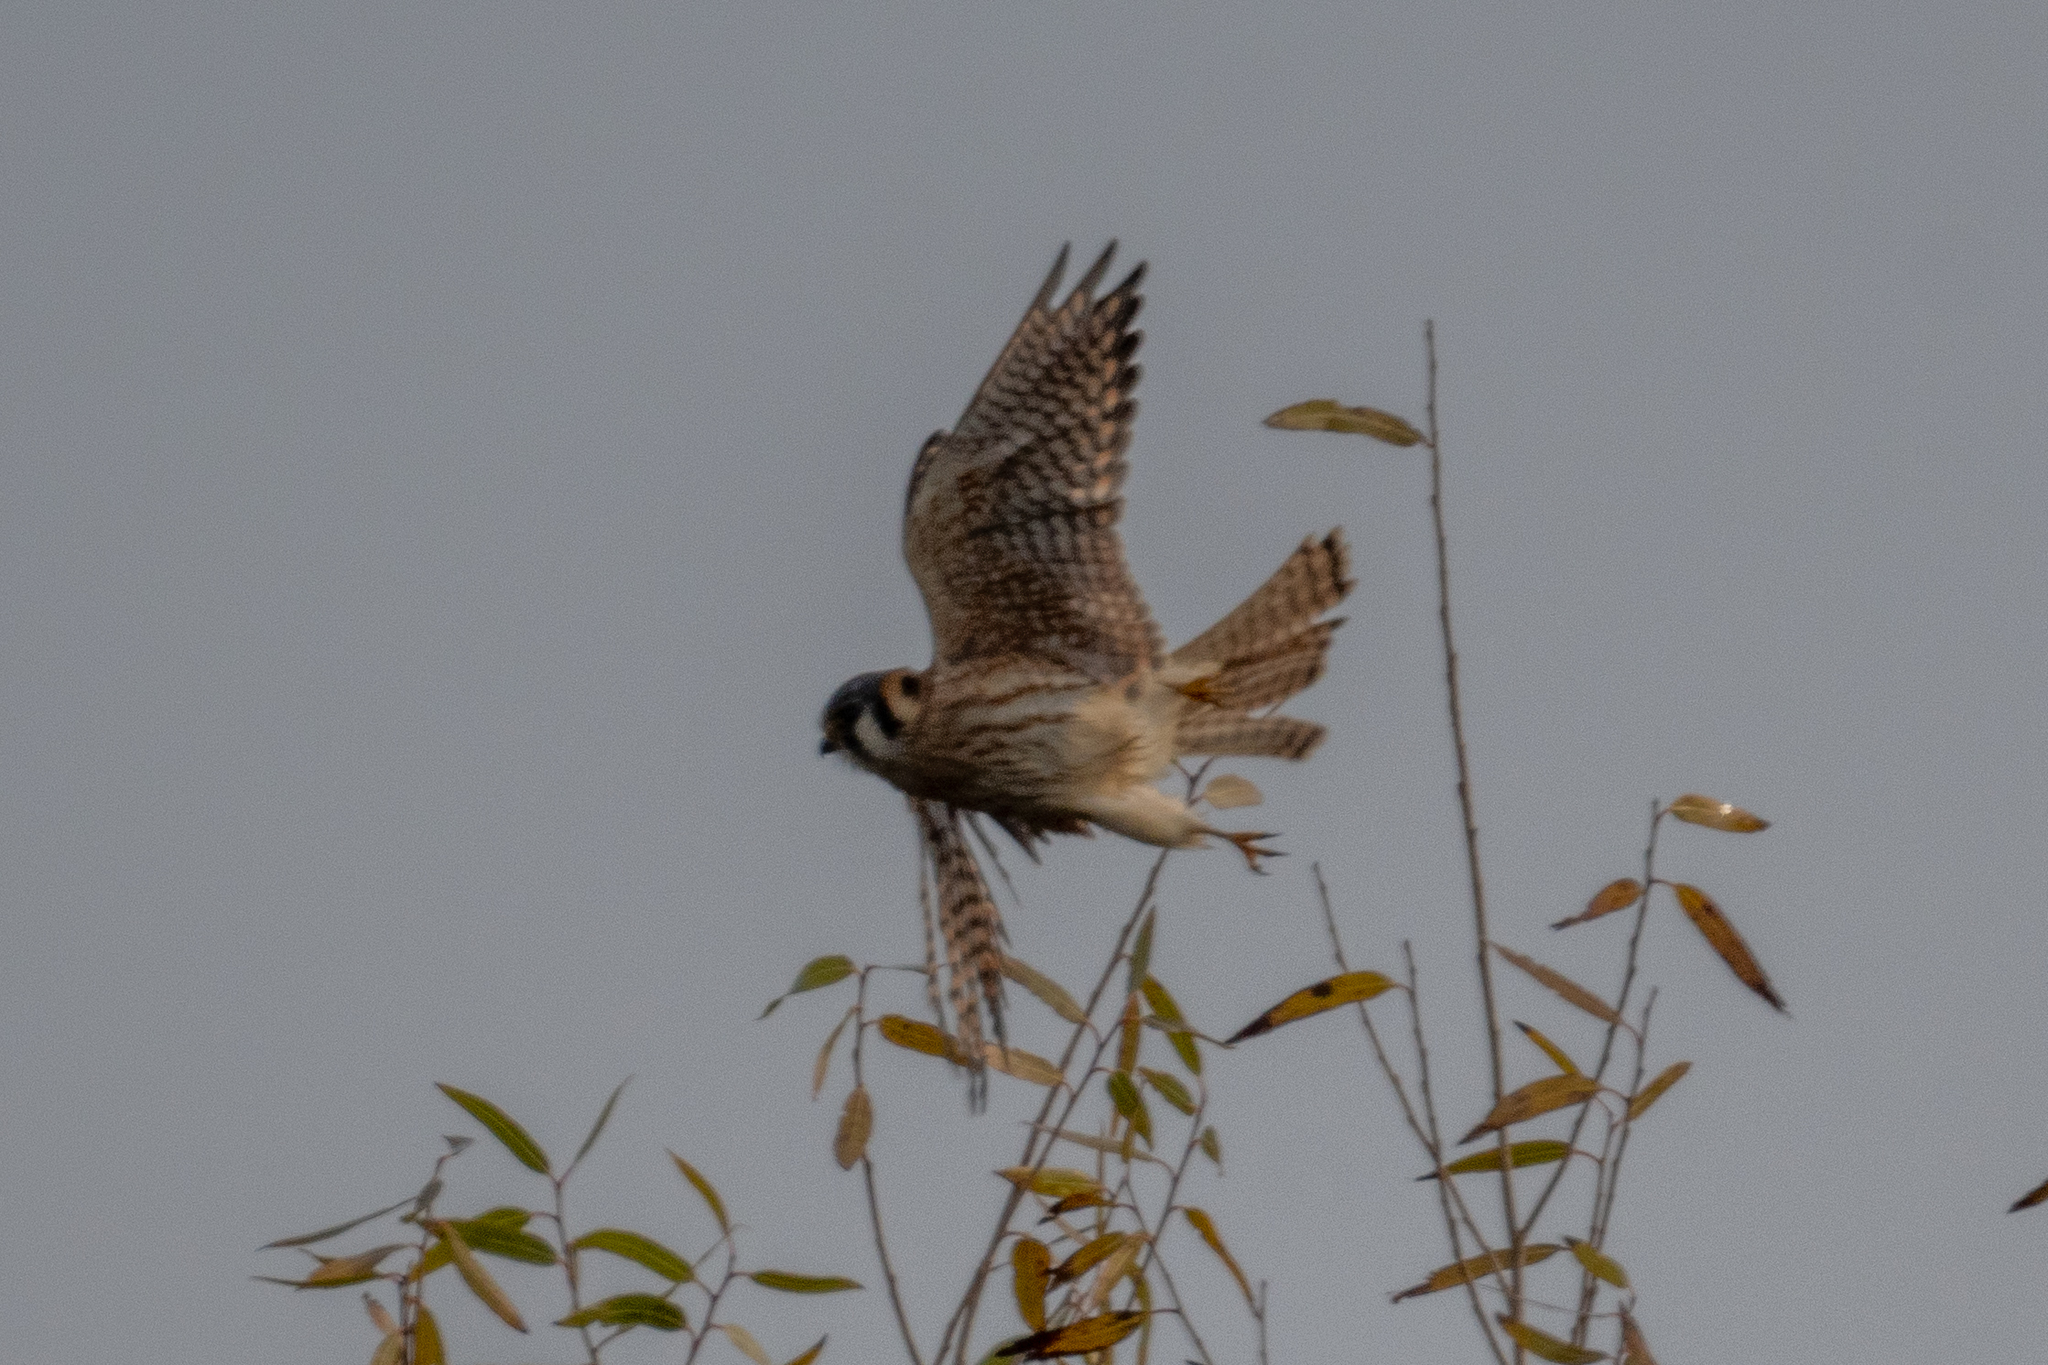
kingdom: Animalia
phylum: Chordata
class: Aves
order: Falconiformes
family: Falconidae
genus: Falco
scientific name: Falco sparverius
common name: American kestrel
